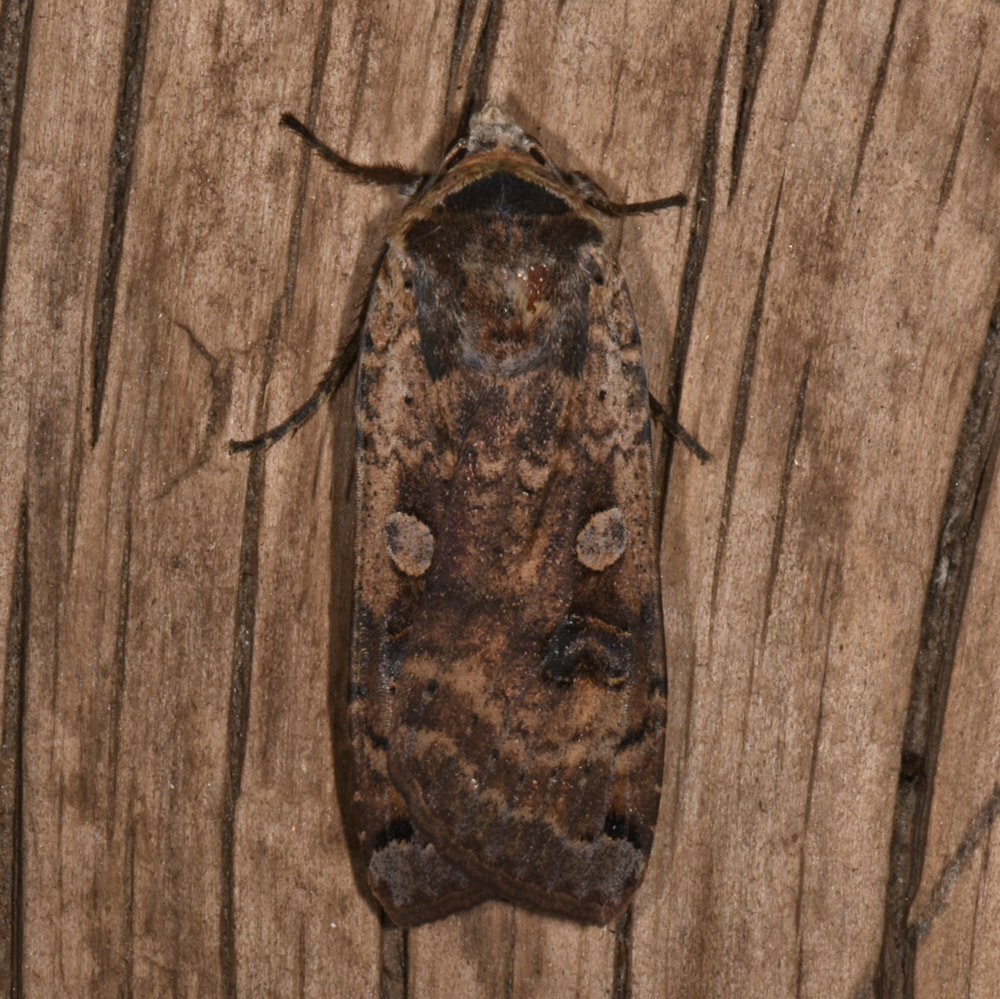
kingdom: Animalia
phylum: Arthropoda
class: Insecta
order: Lepidoptera
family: Noctuidae
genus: Noctua
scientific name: Noctua pronuba
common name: Large yellow underwing
